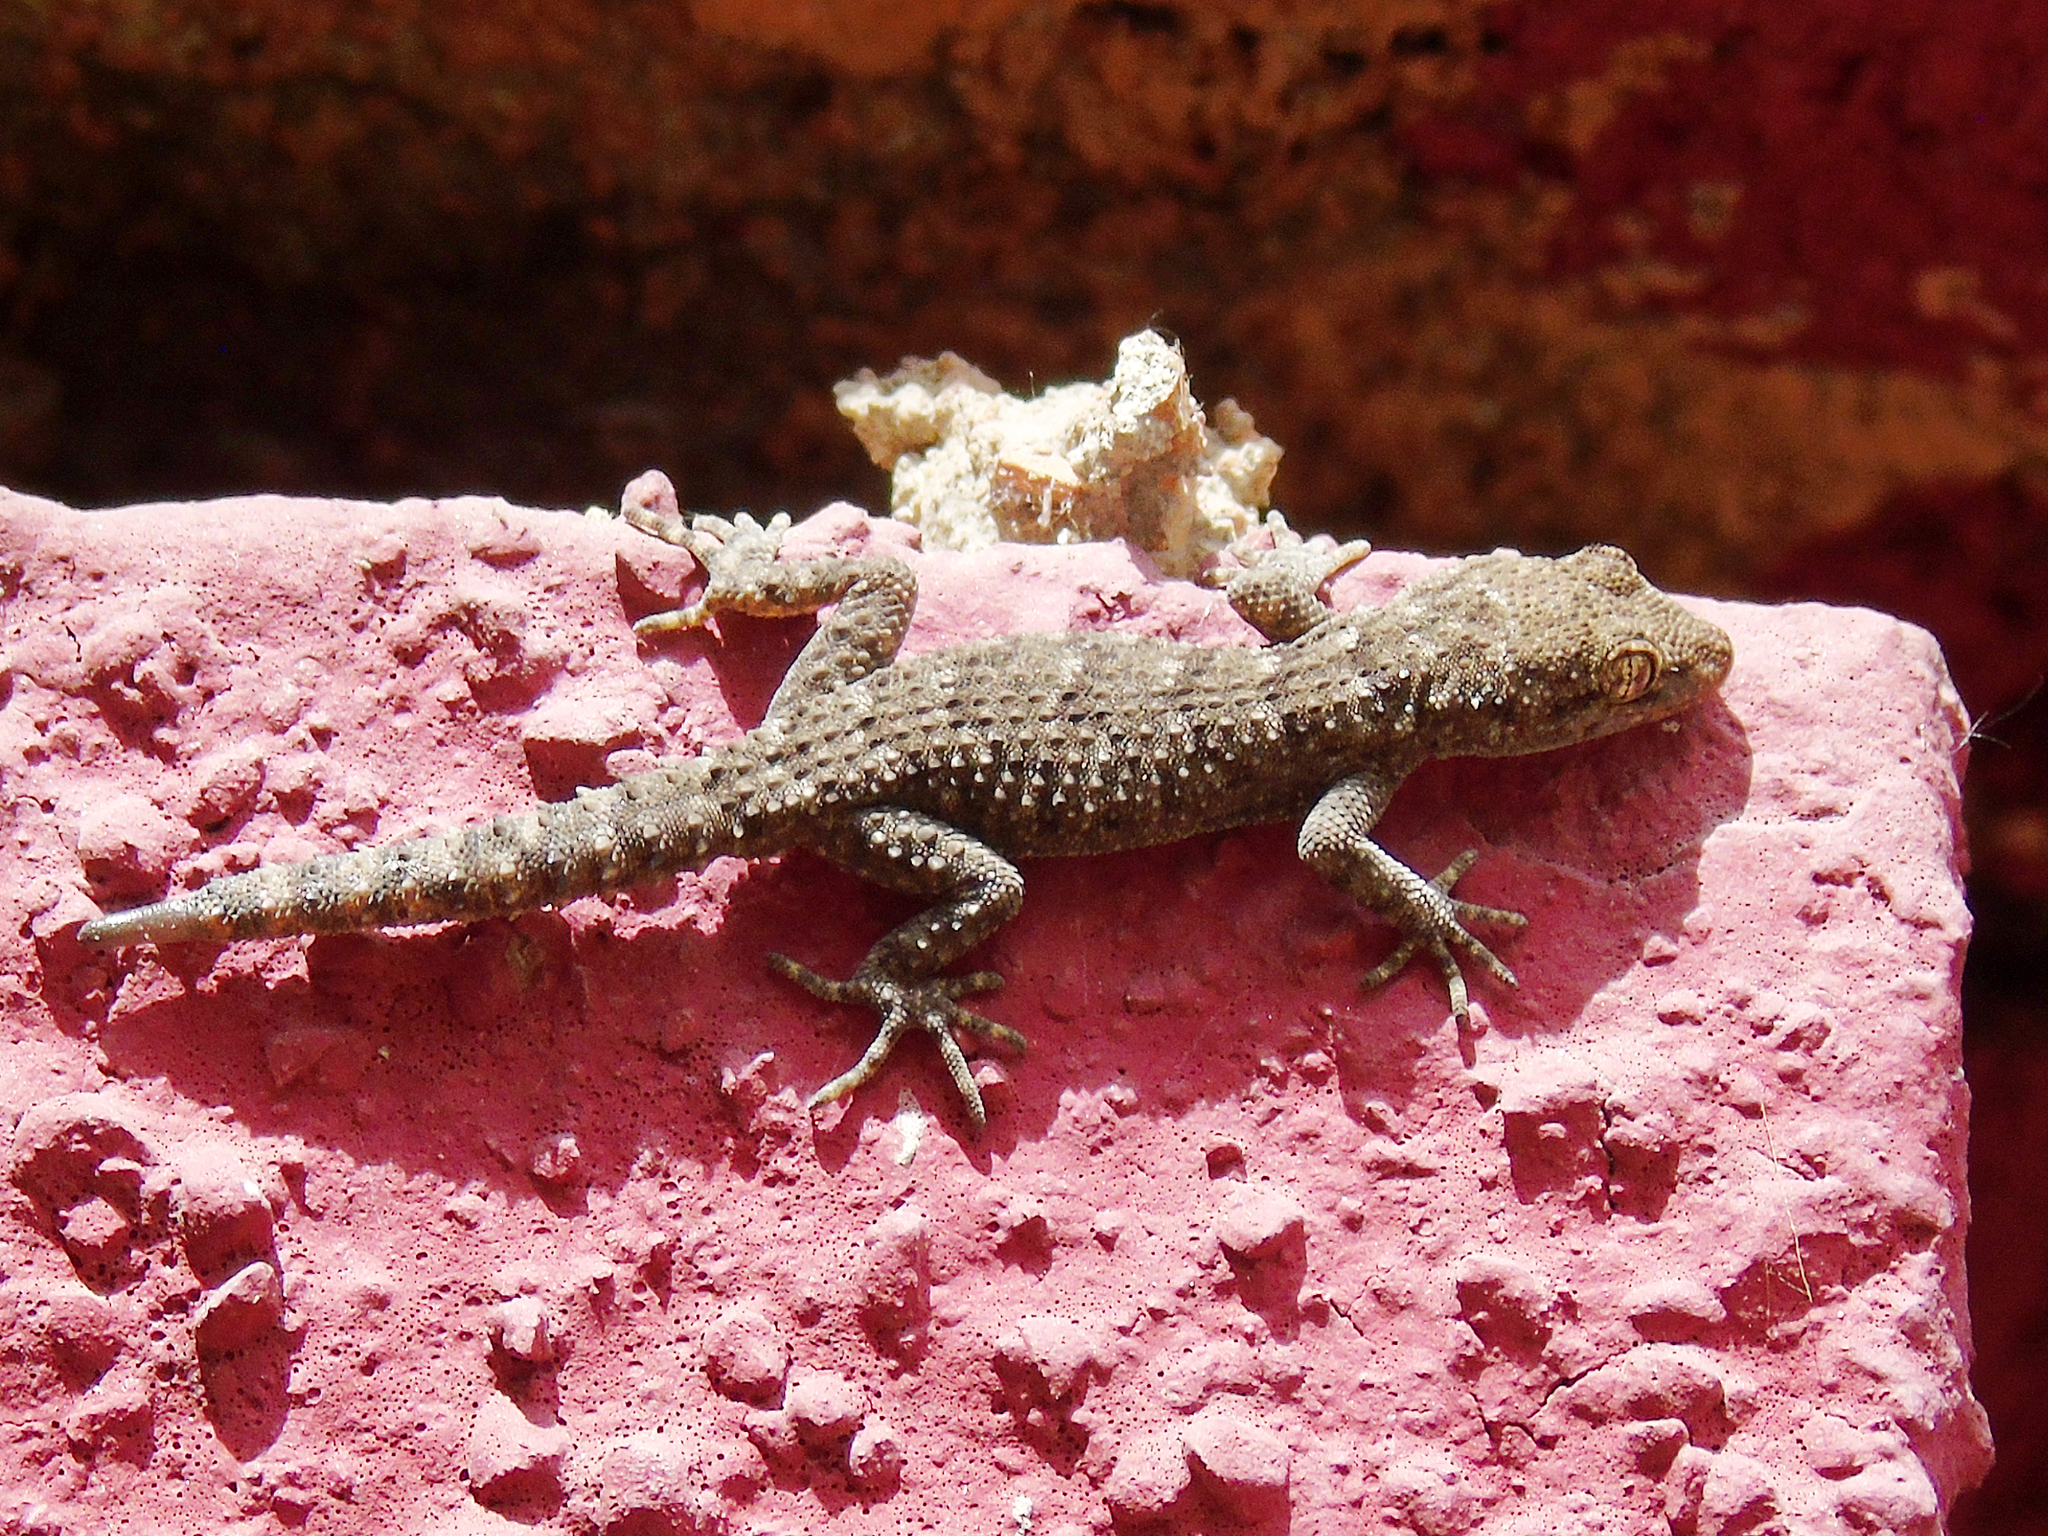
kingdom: Animalia
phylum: Chordata
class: Squamata
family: Gekkonidae
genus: Mediodactylus
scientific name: Mediodactylus kotschyi
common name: Kotschy's gecko
